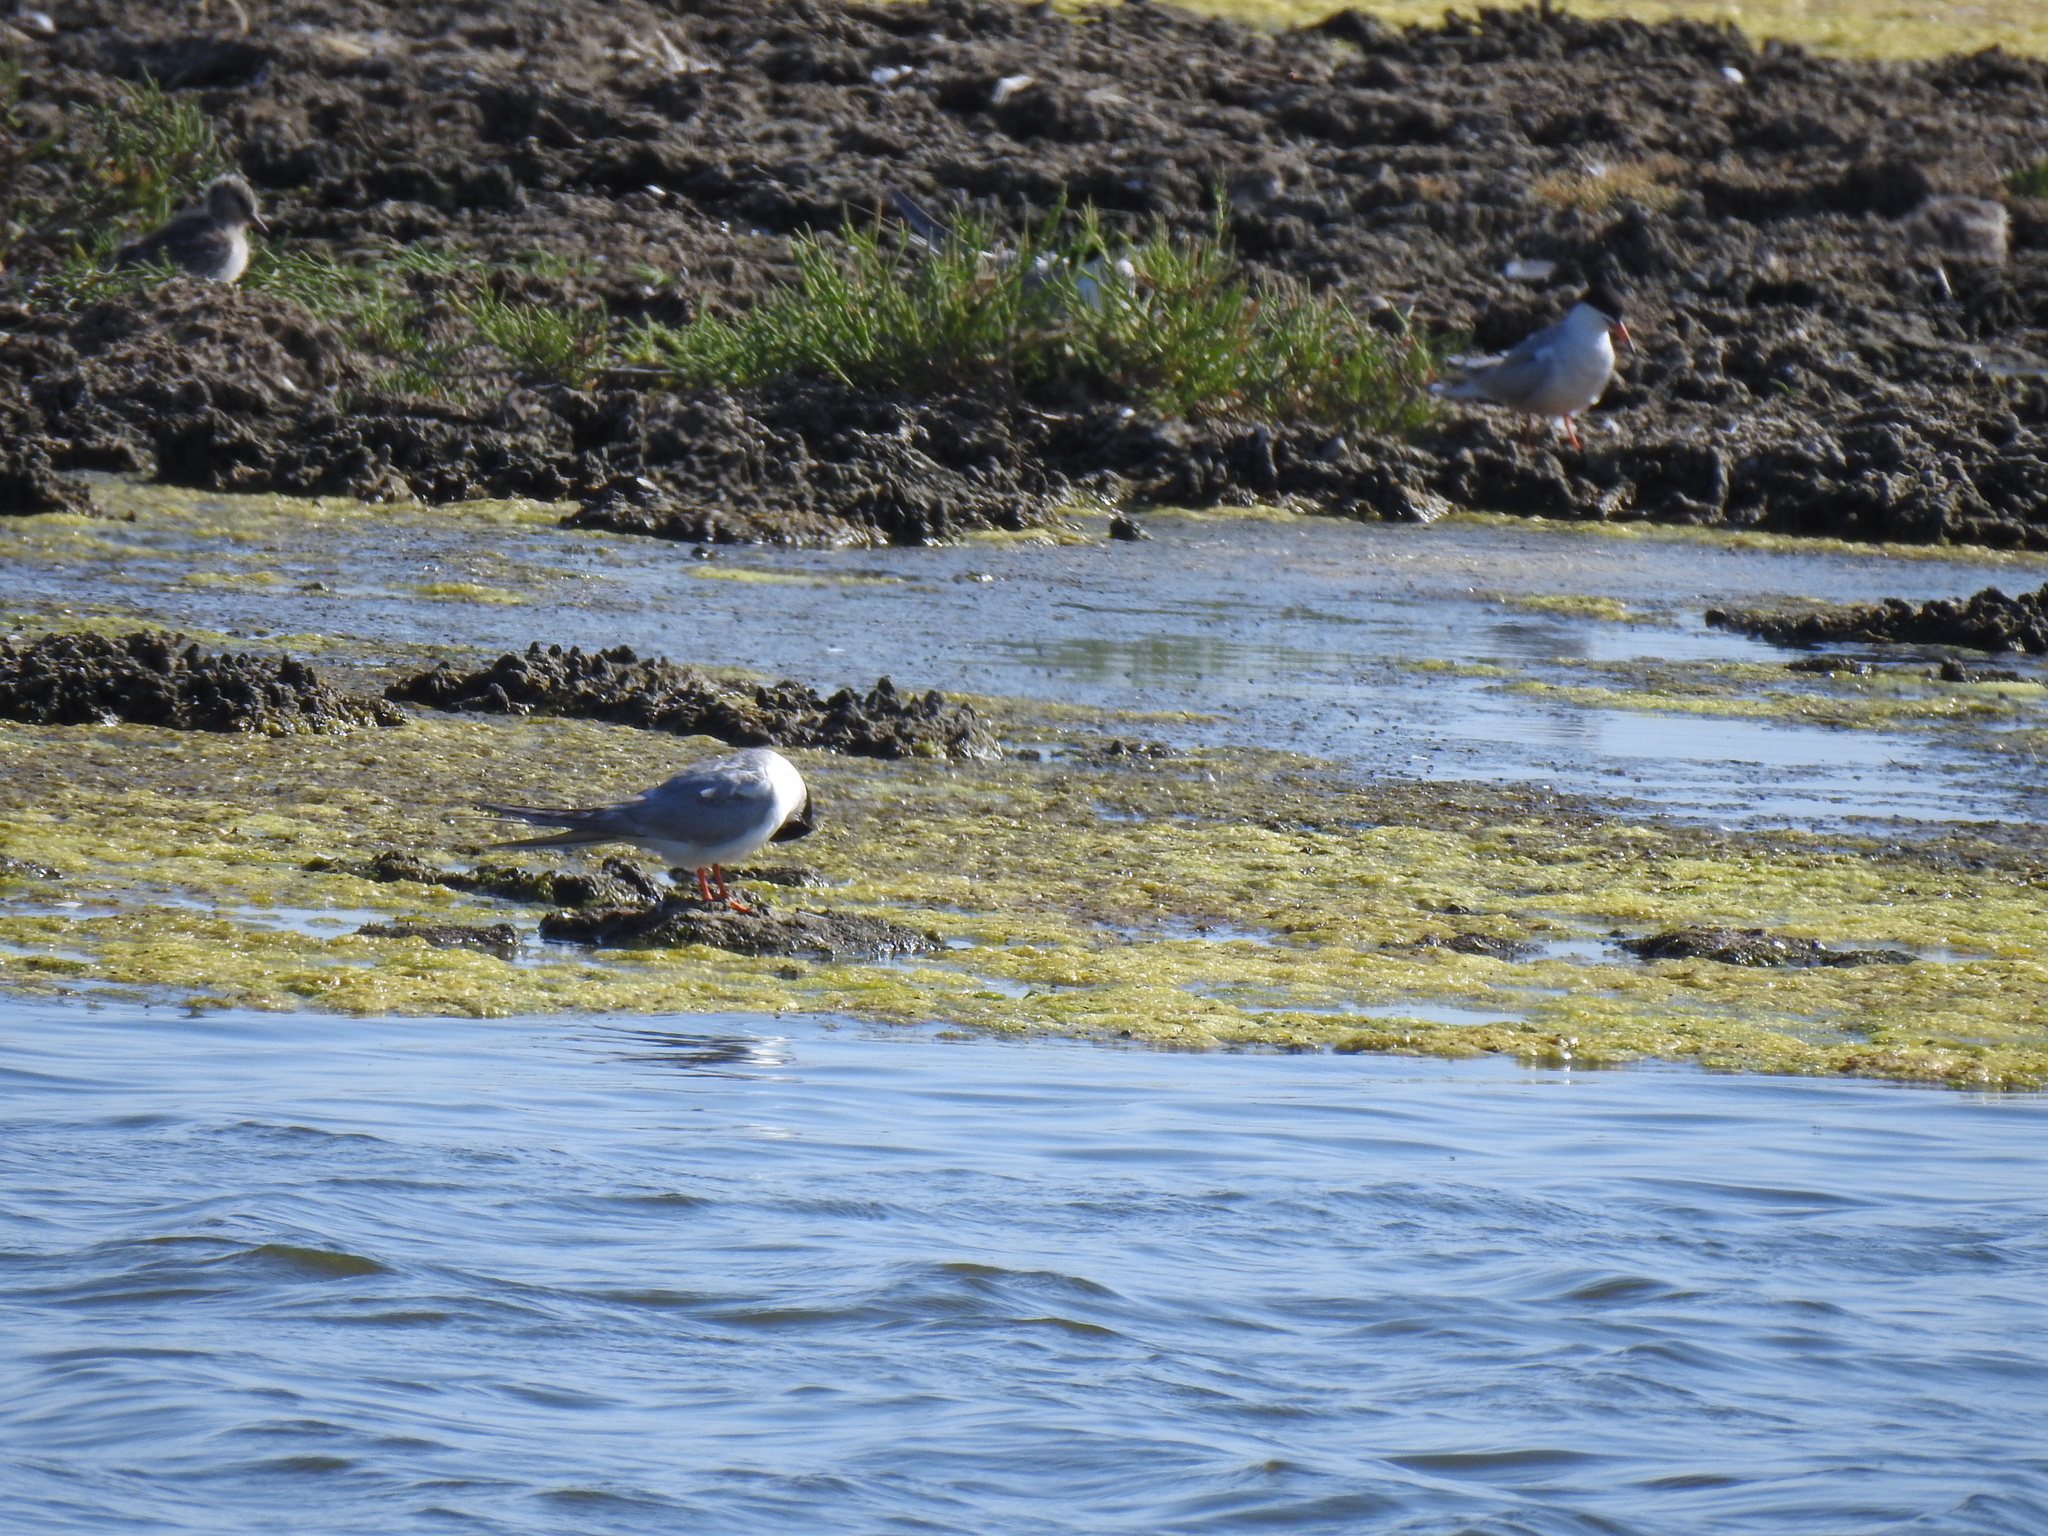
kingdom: Animalia
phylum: Chordata
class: Aves
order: Charadriiformes
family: Laridae
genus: Sterna
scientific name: Sterna forsteri
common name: Forster's tern
